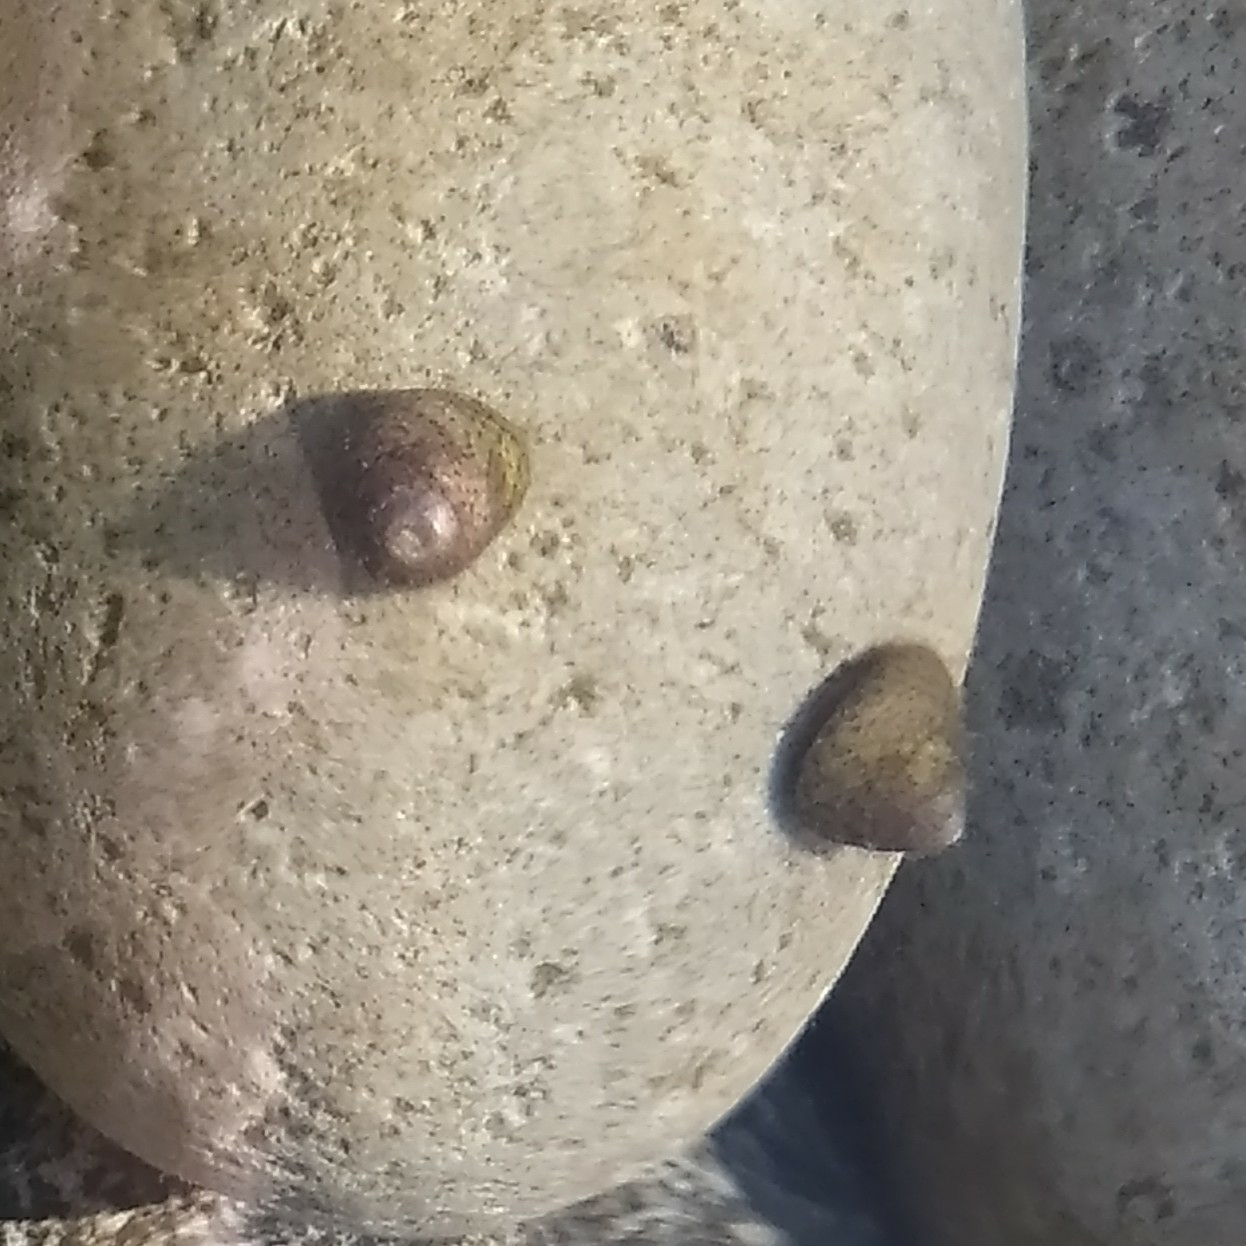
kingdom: Animalia
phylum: Mollusca
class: Gastropoda
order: Trochida
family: Trochidae
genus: Steromphala
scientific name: Steromphala divaricata
